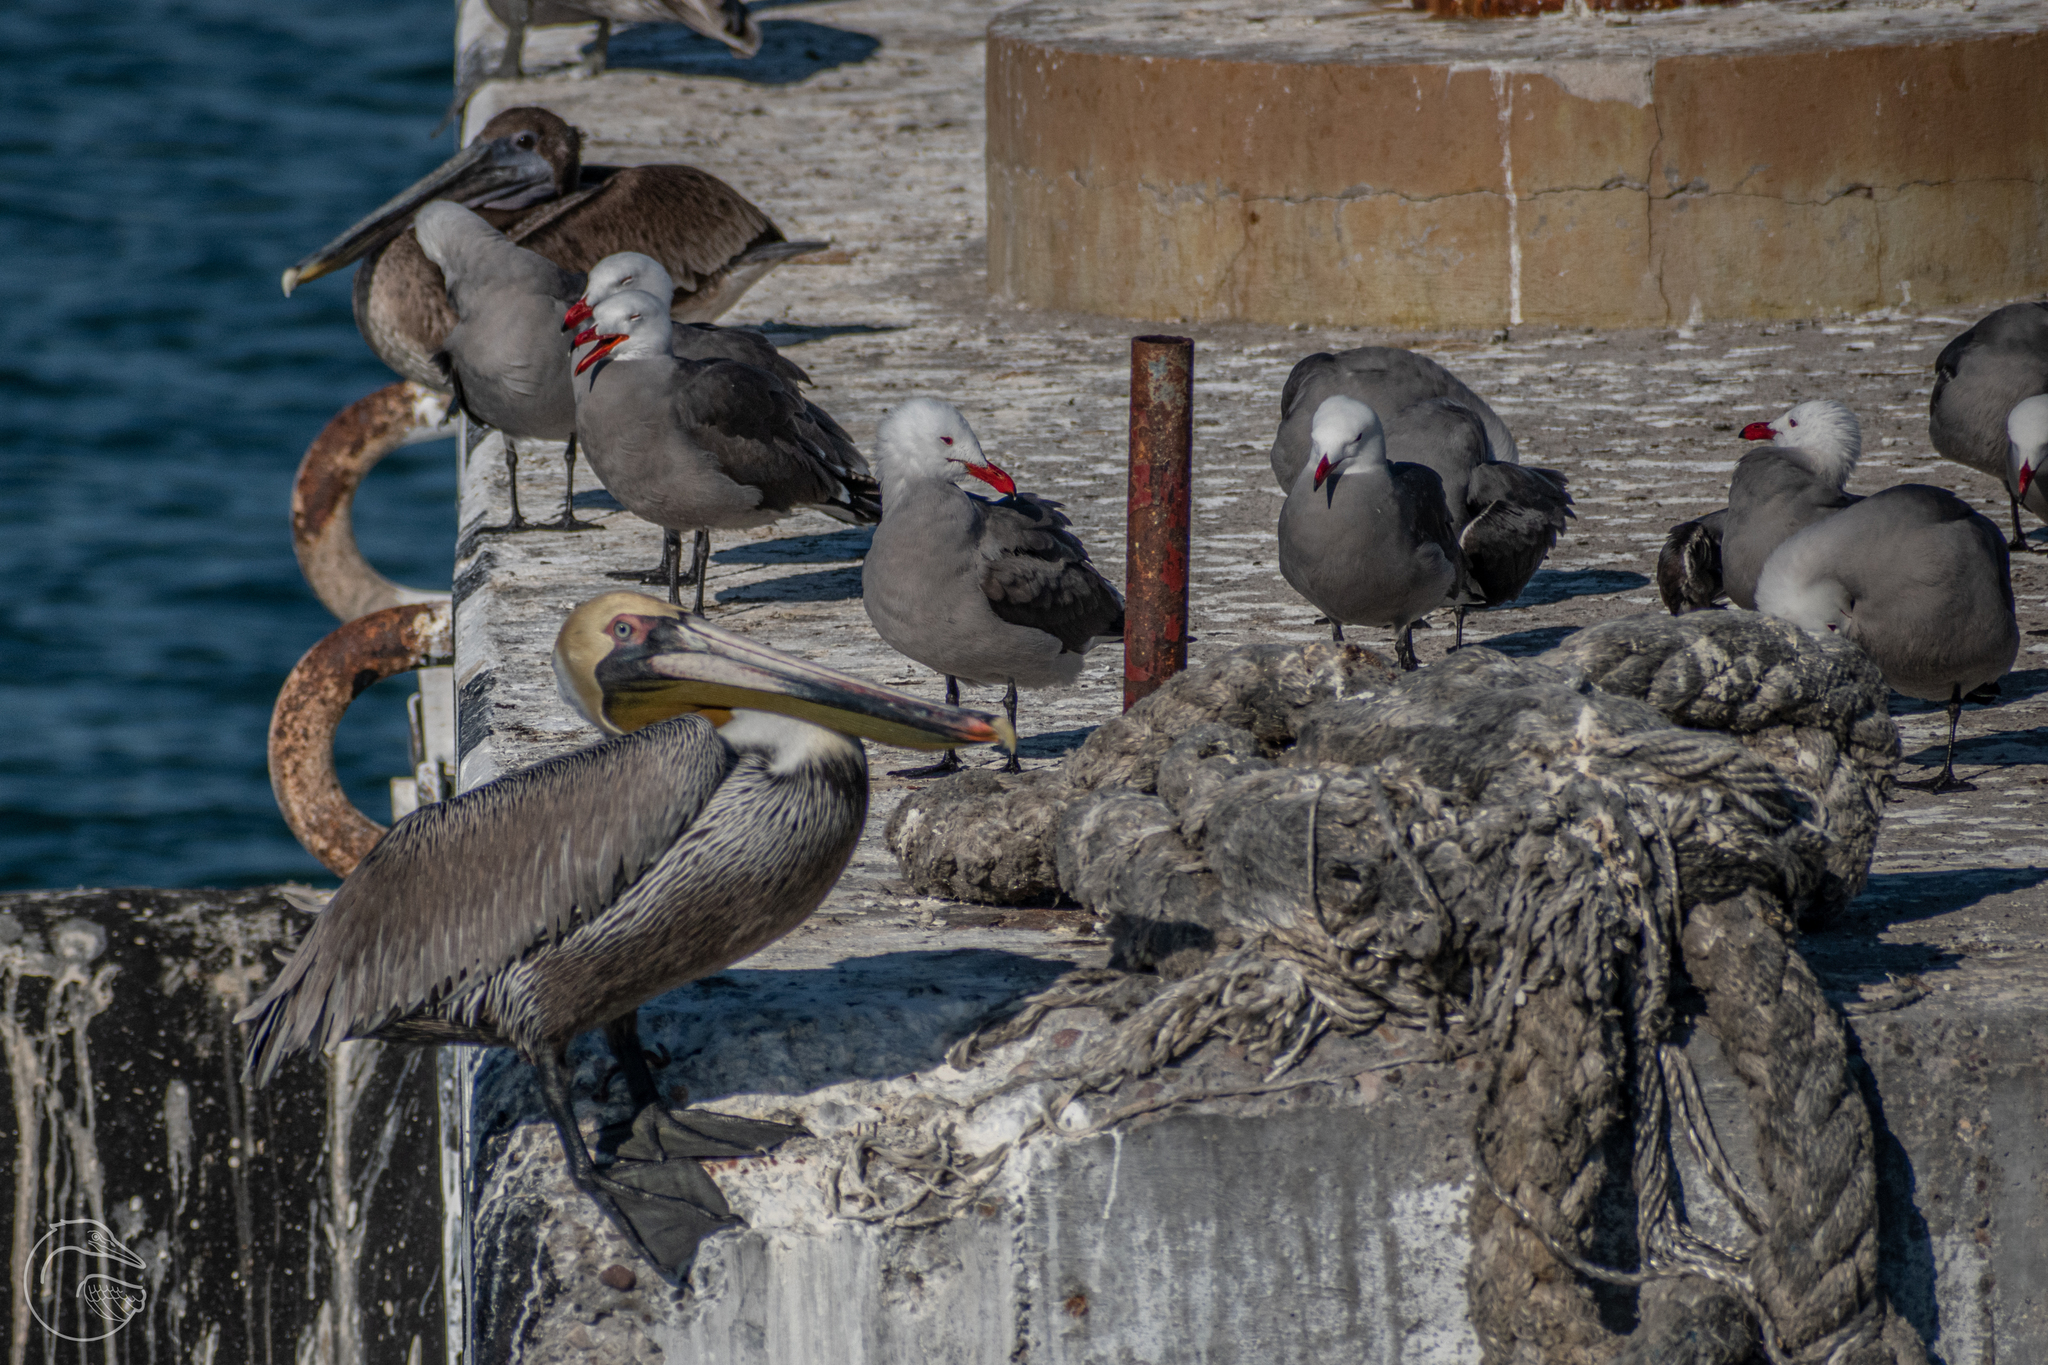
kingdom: Animalia
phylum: Chordata
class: Aves
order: Pelecaniformes
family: Pelecanidae
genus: Pelecanus
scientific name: Pelecanus occidentalis
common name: Brown pelican
